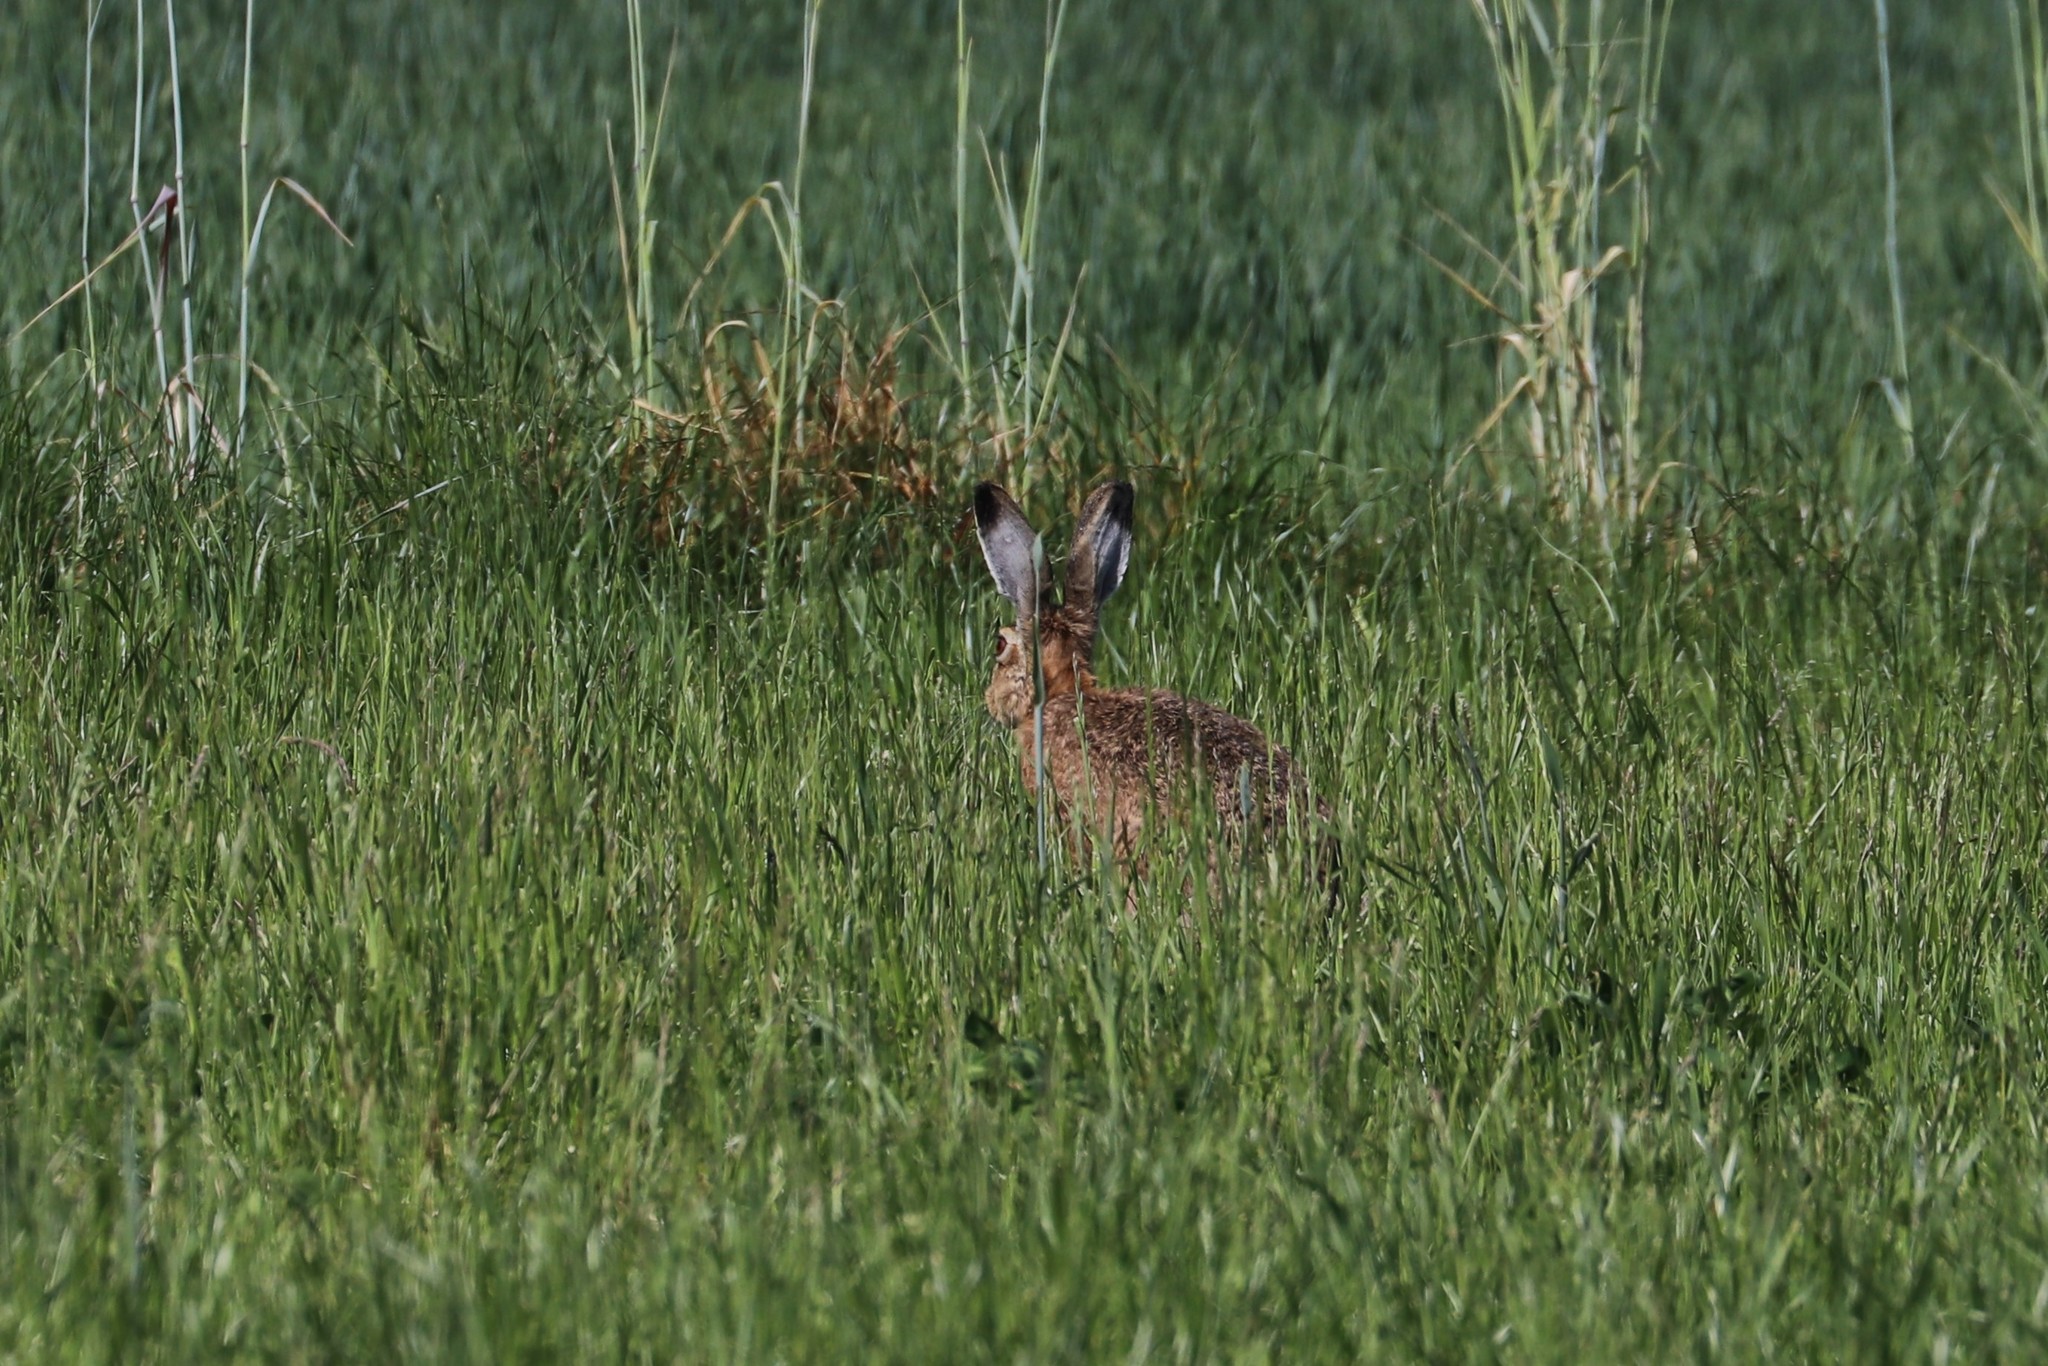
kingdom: Animalia
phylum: Chordata
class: Mammalia
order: Lagomorpha
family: Leporidae
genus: Lepus
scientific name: Lepus europaeus
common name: European hare
